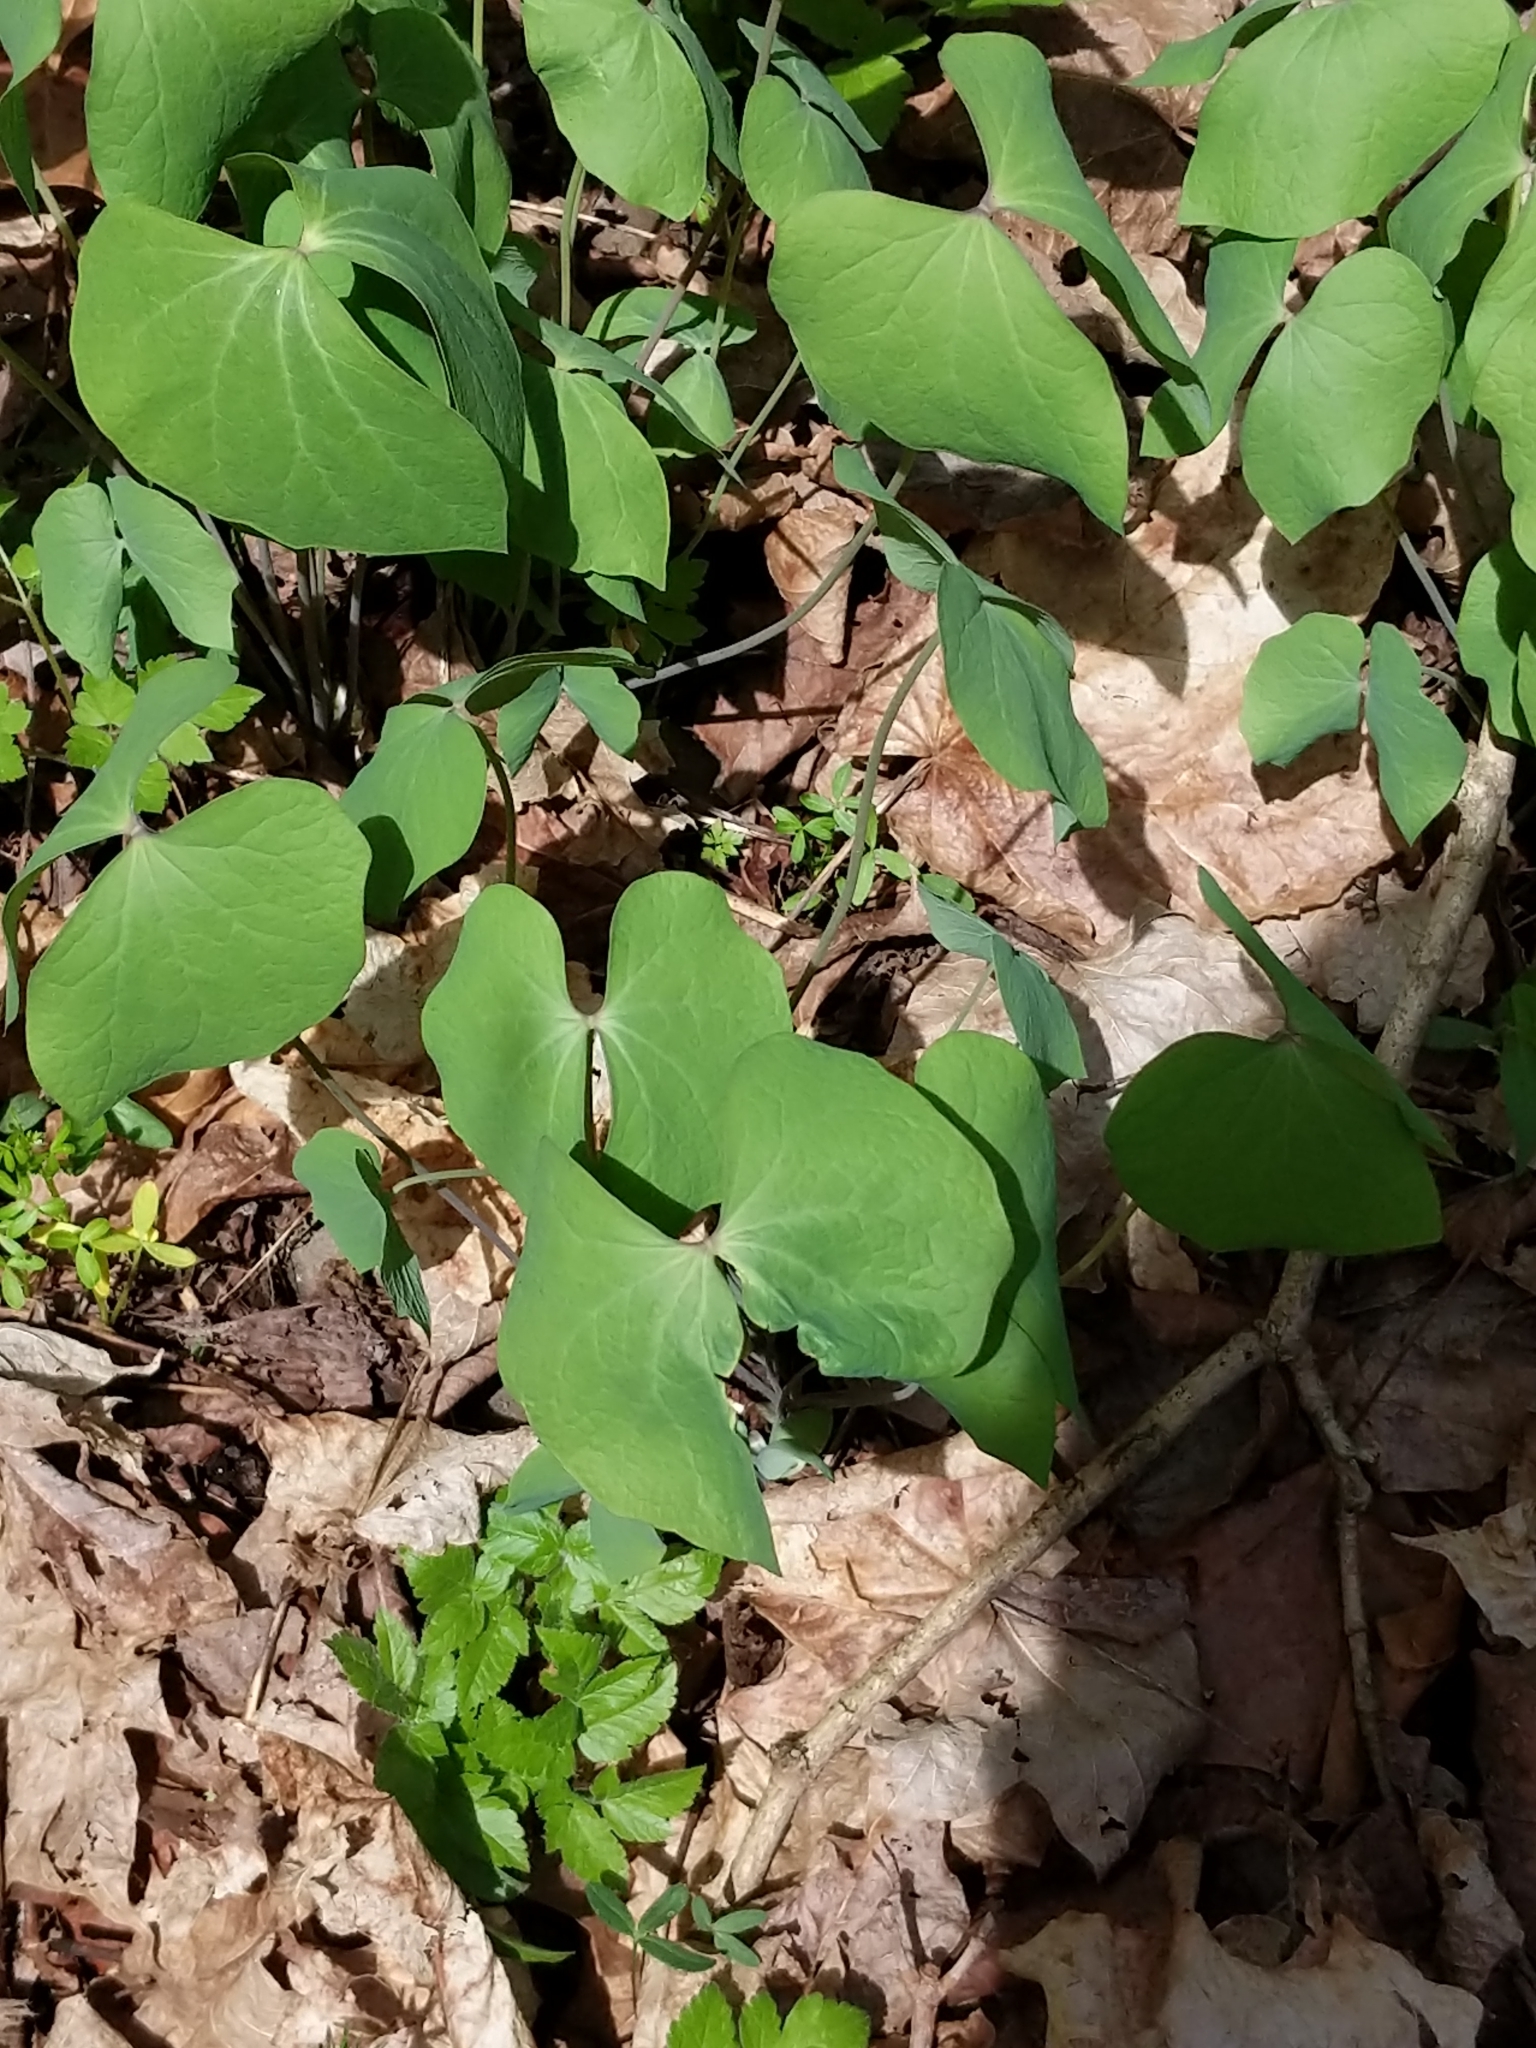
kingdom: Plantae
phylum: Tracheophyta
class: Magnoliopsida
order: Ranunculales
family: Berberidaceae
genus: Jeffersonia
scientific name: Jeffersonia diphylla
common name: Rheumatism-root
